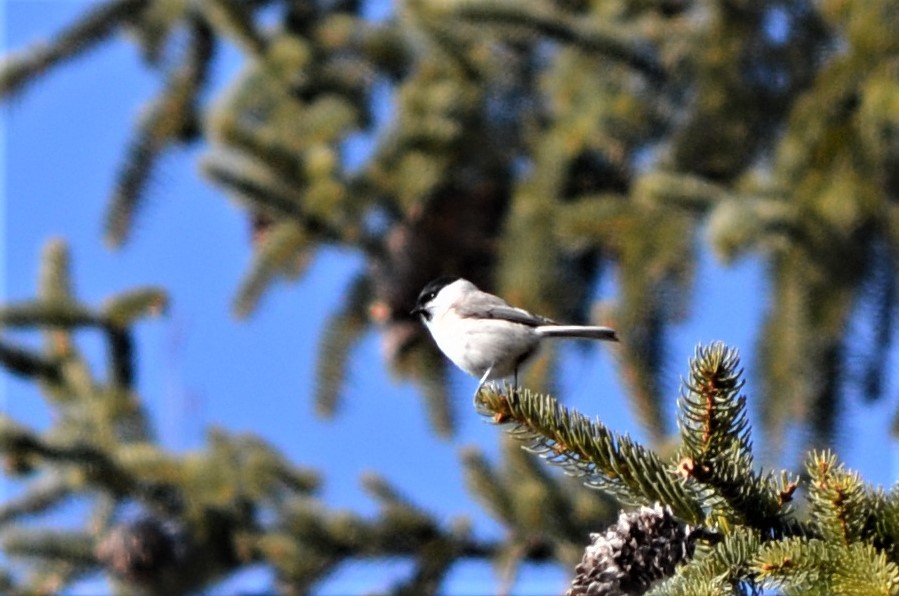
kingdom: Animalia
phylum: Chordata
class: Aves
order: Passeriformes
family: Paridae
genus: Poecile
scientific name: Poecile palustris
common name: Marsh tit
